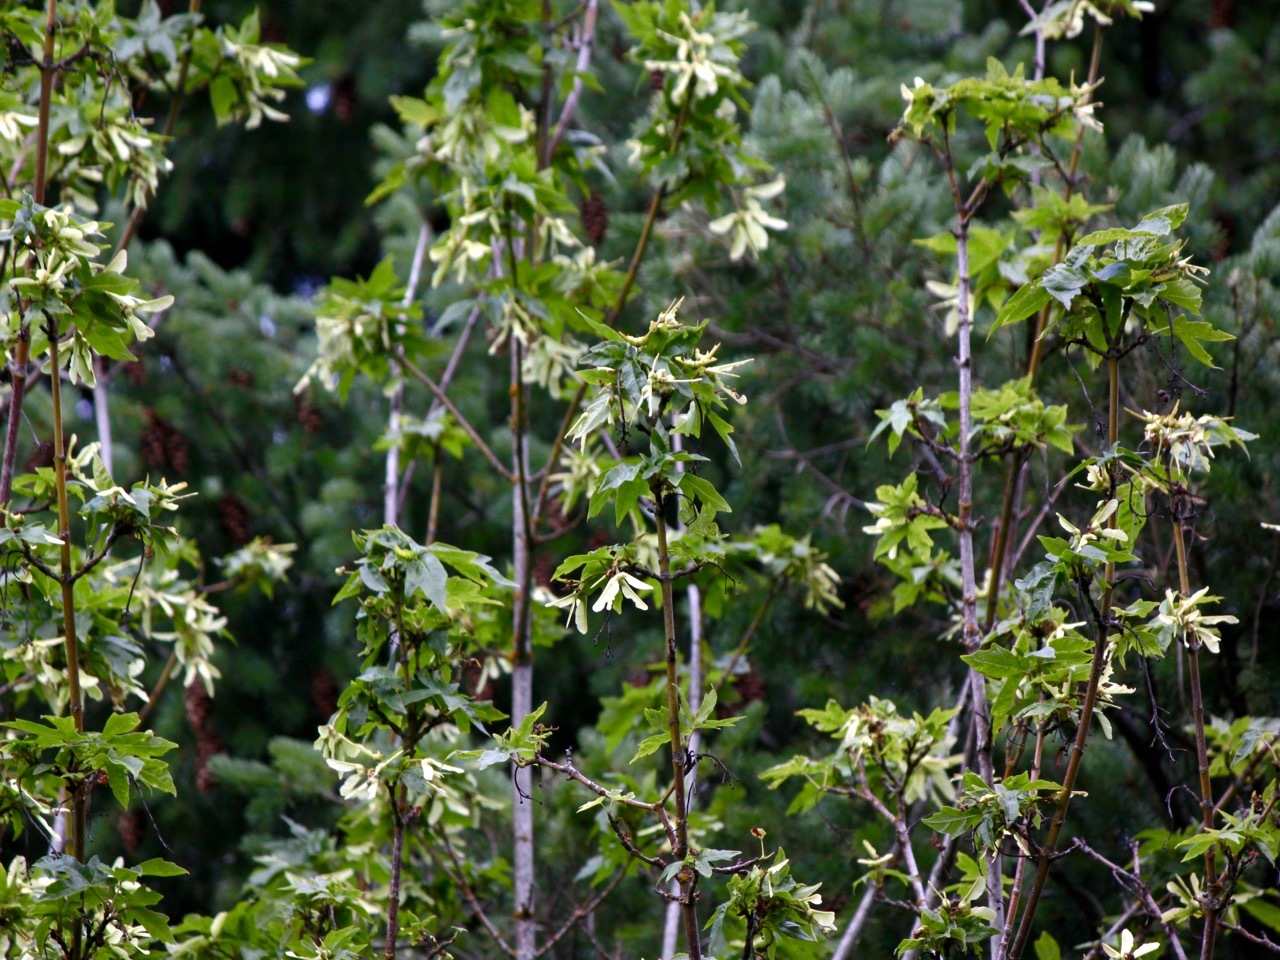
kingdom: Plantae
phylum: Tracheophyta
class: Magnoliopsida
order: Sapindales
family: Sapindaceae
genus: Acer
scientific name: Acer macrophyllum
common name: Oregon maple
